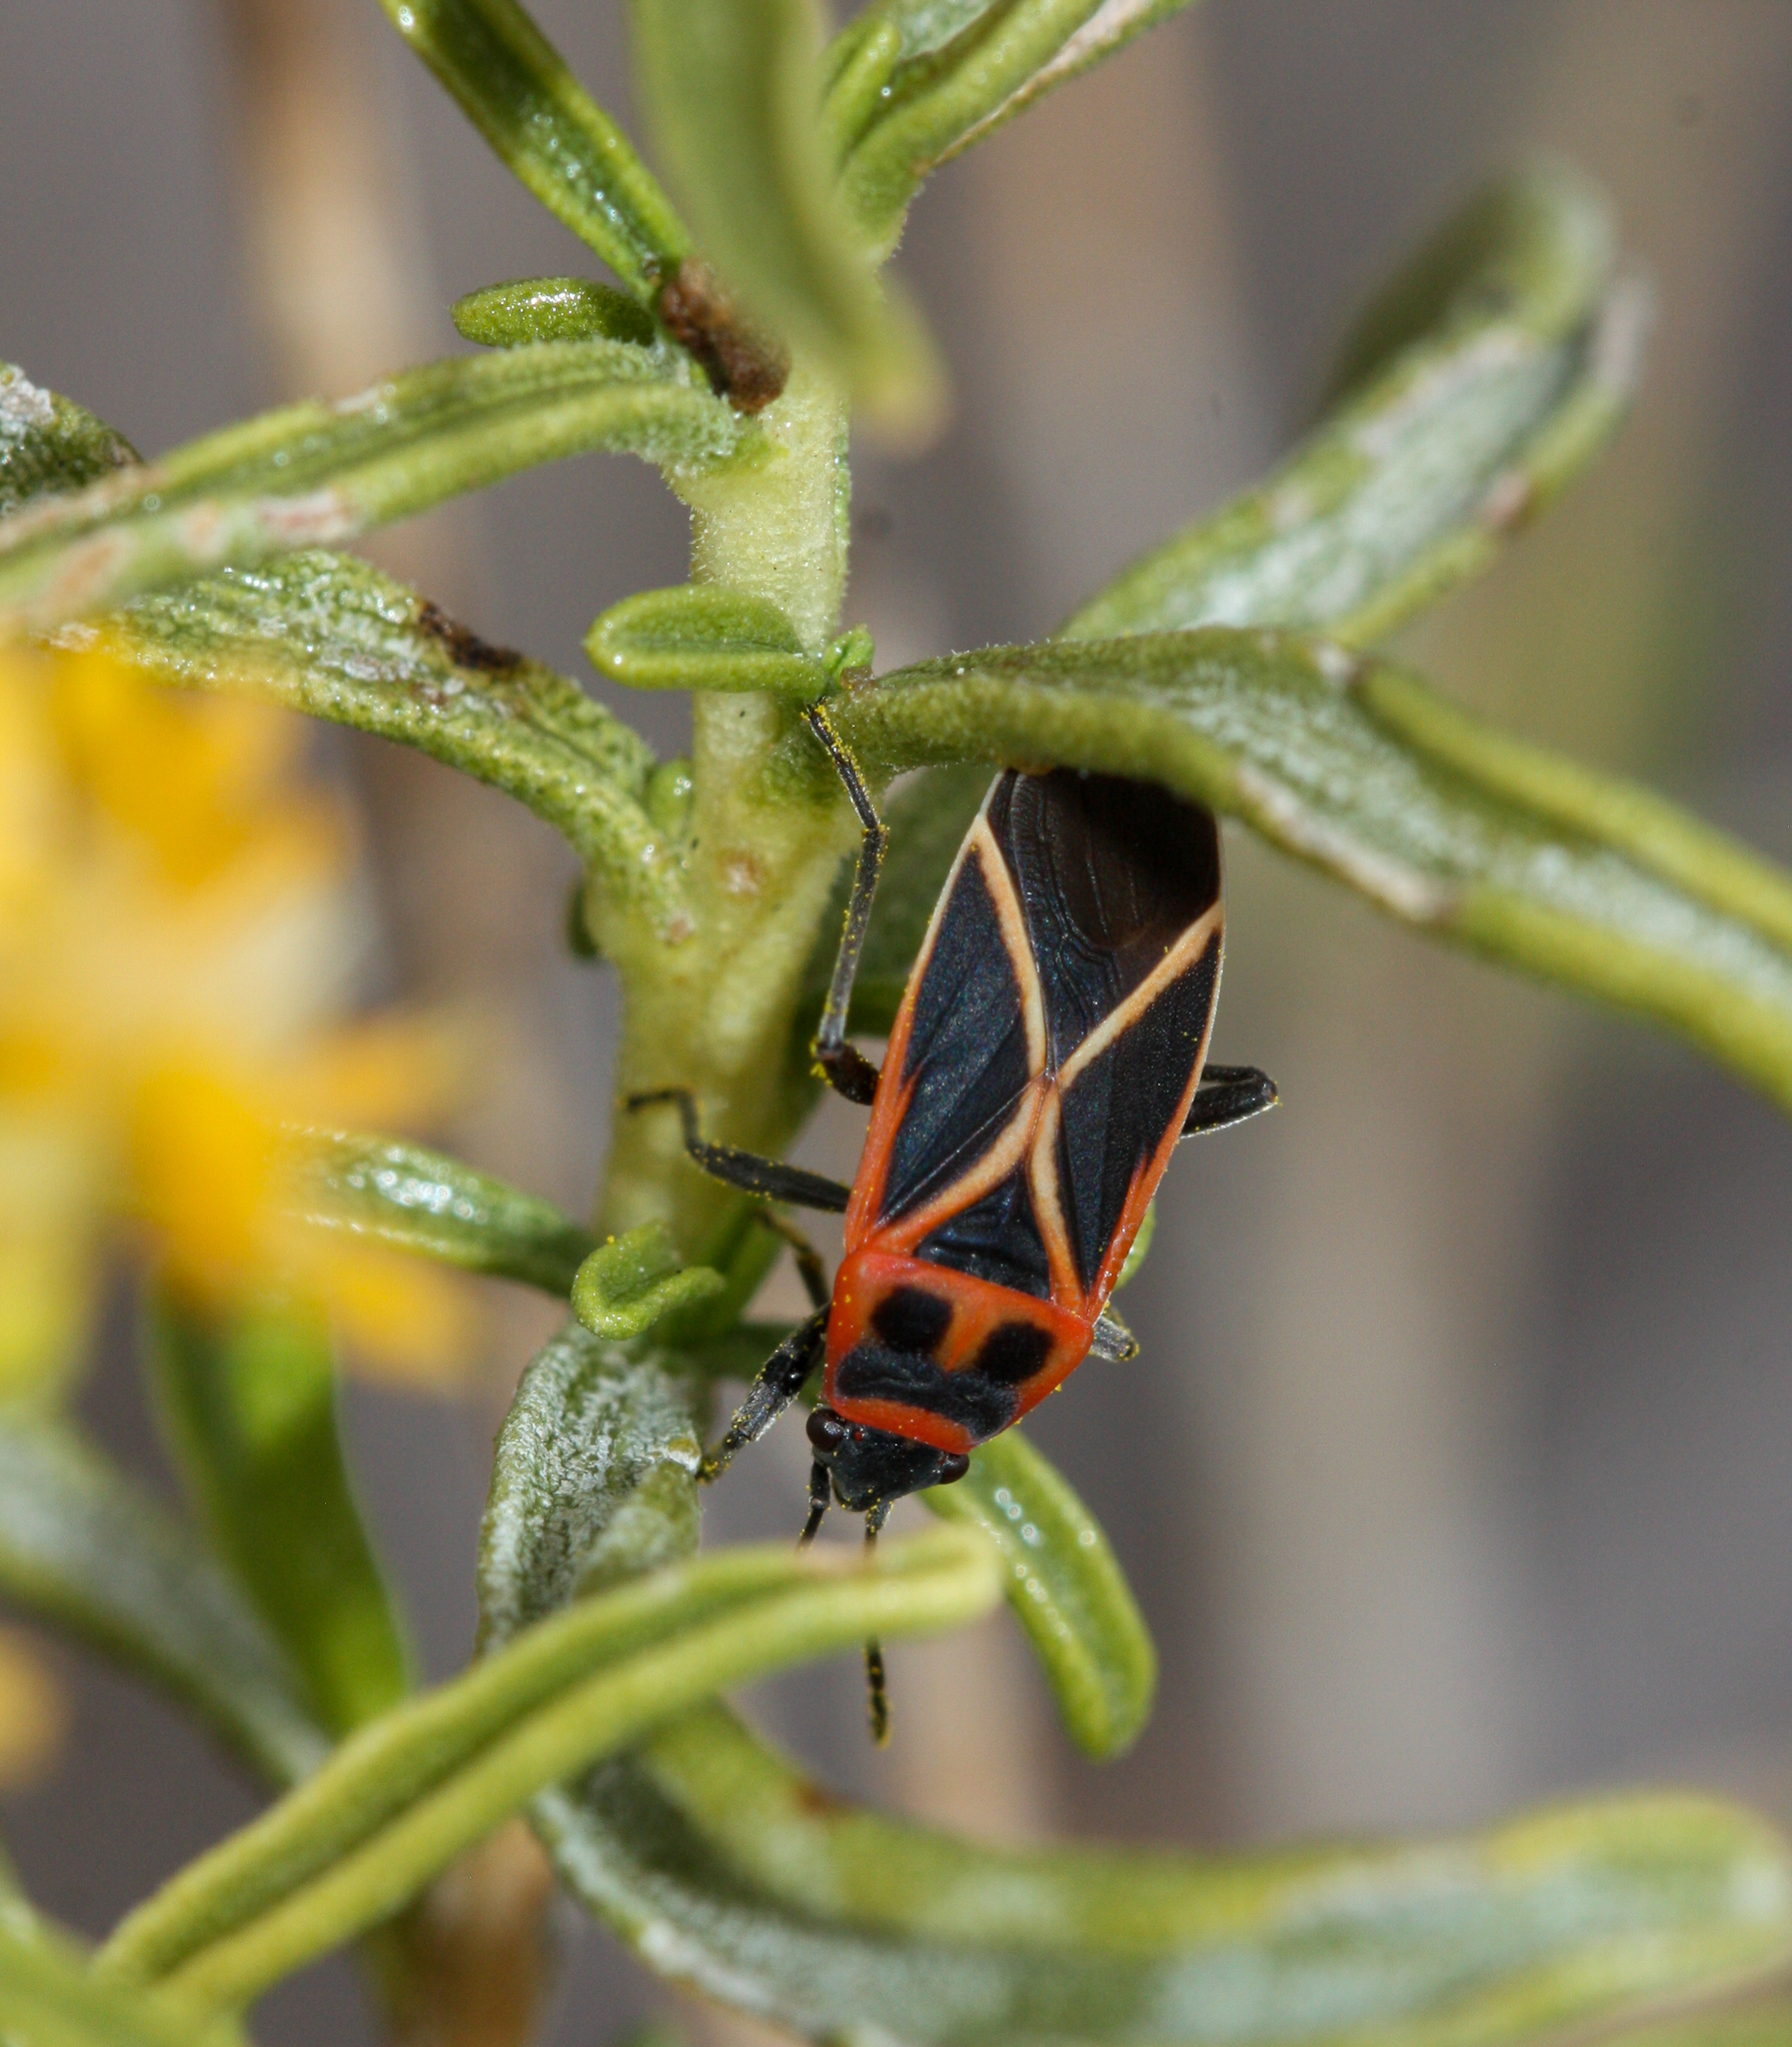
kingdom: Animalia
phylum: Arthropoda
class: Insecta
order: Hemiptera
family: Lygaeidae
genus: Ochrostomus
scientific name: Ochrostomus uhleri
